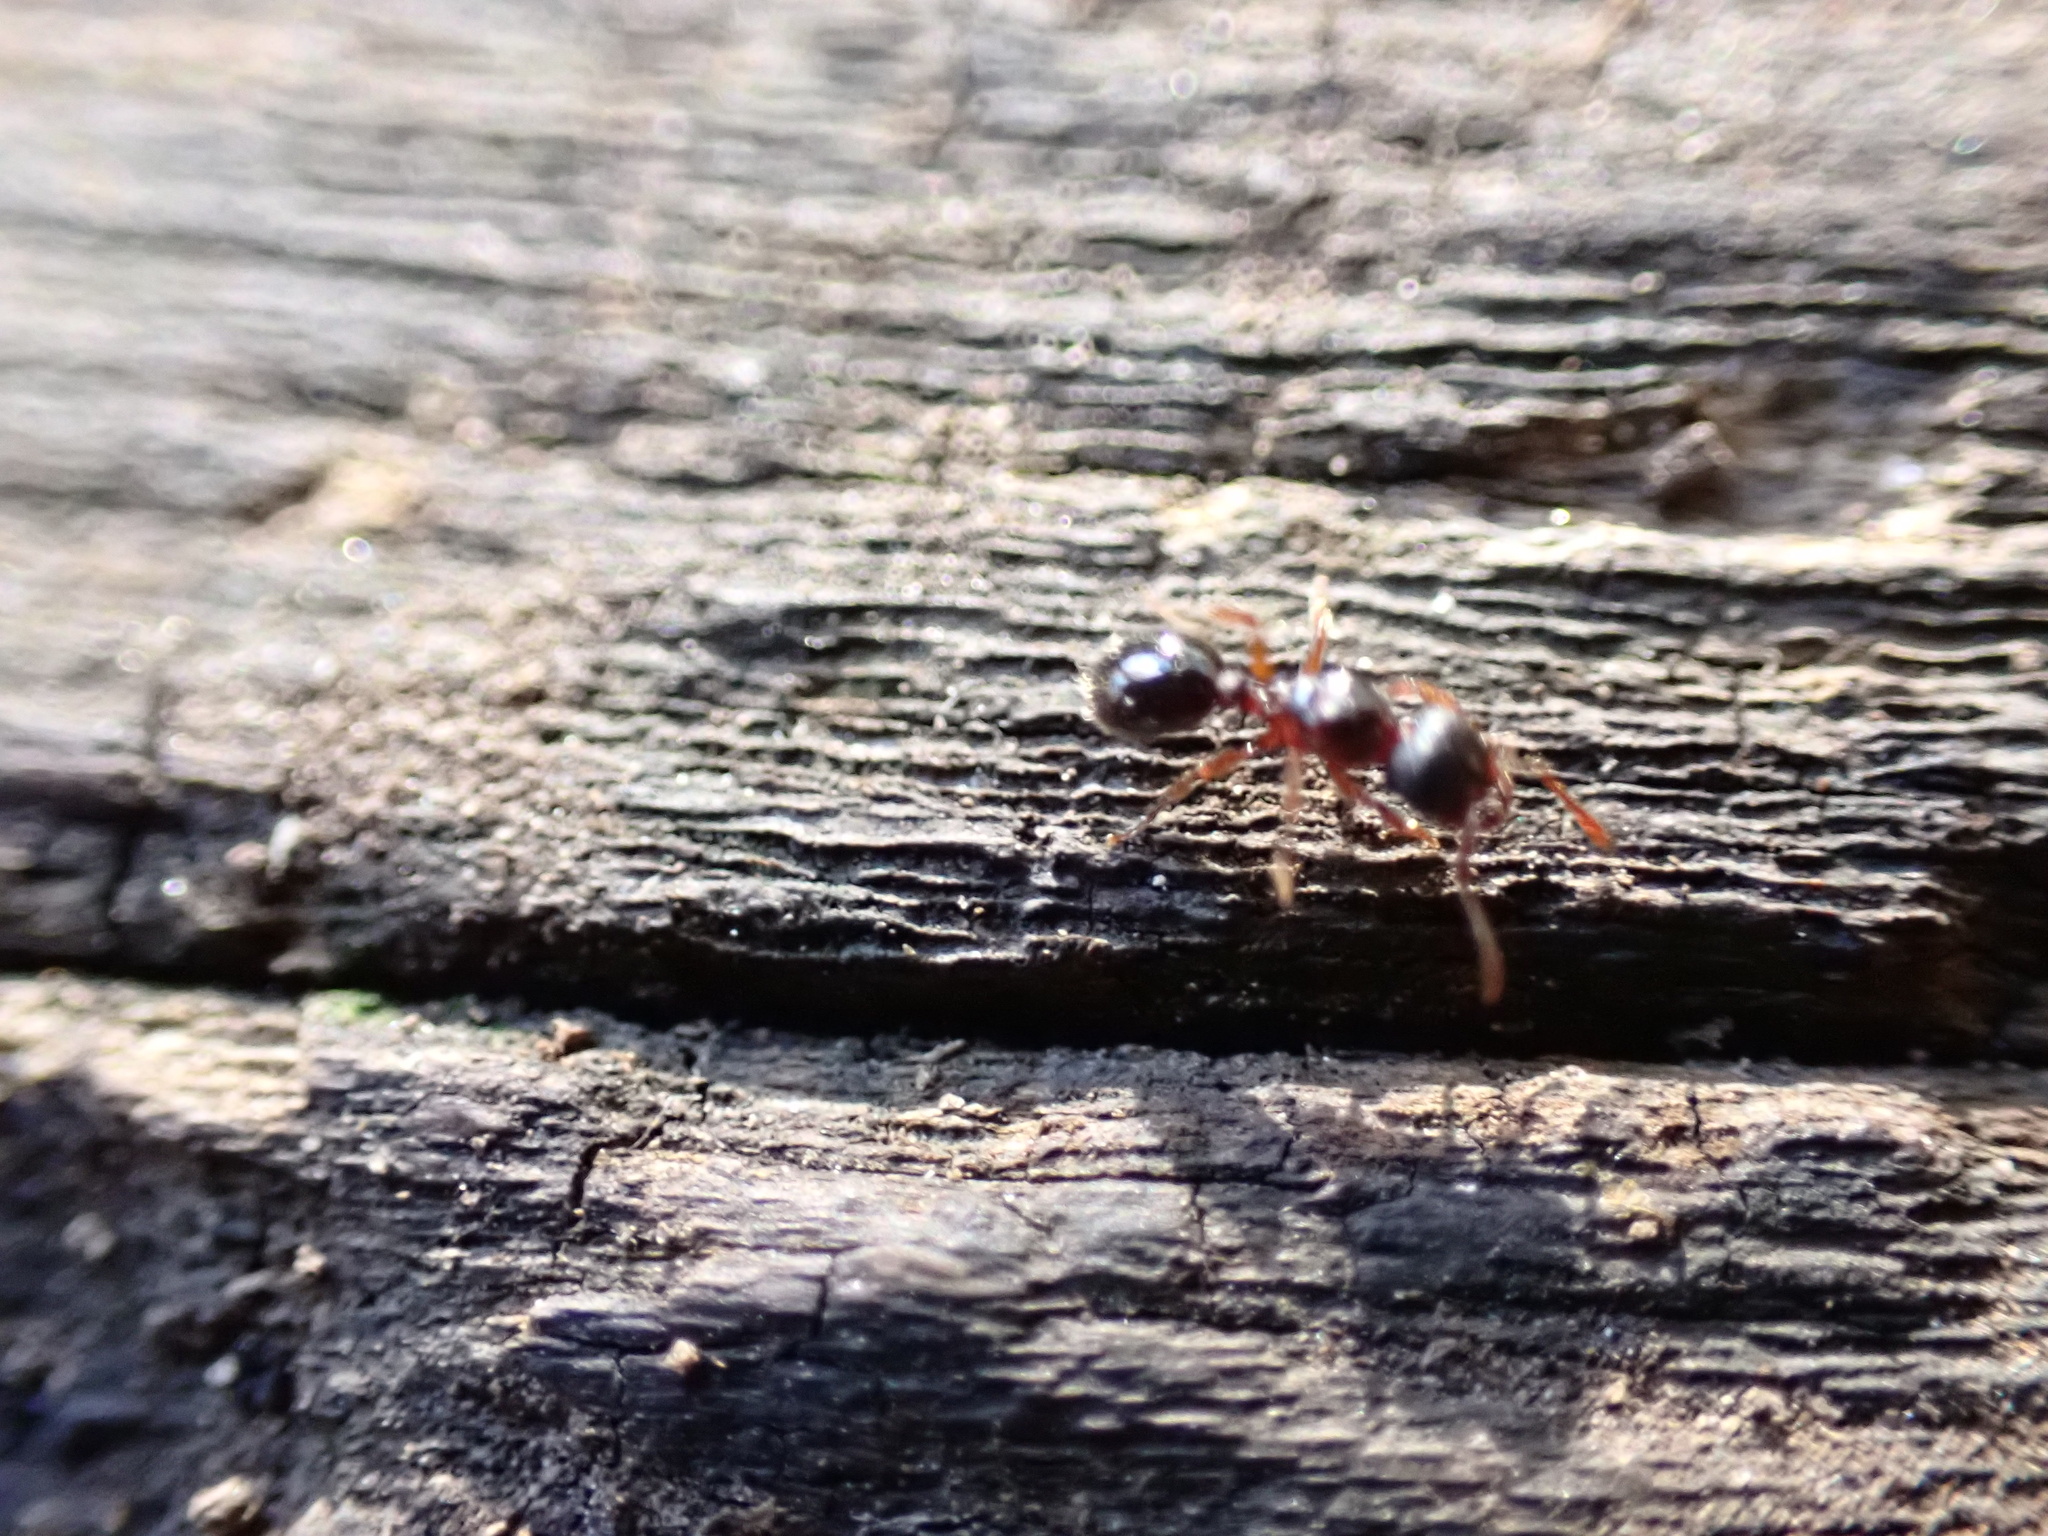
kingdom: Animalia
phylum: Arthropoda
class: Insecta
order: Hymenoptera
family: Formicidae
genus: Myrmecina
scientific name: Myrmecina americana
